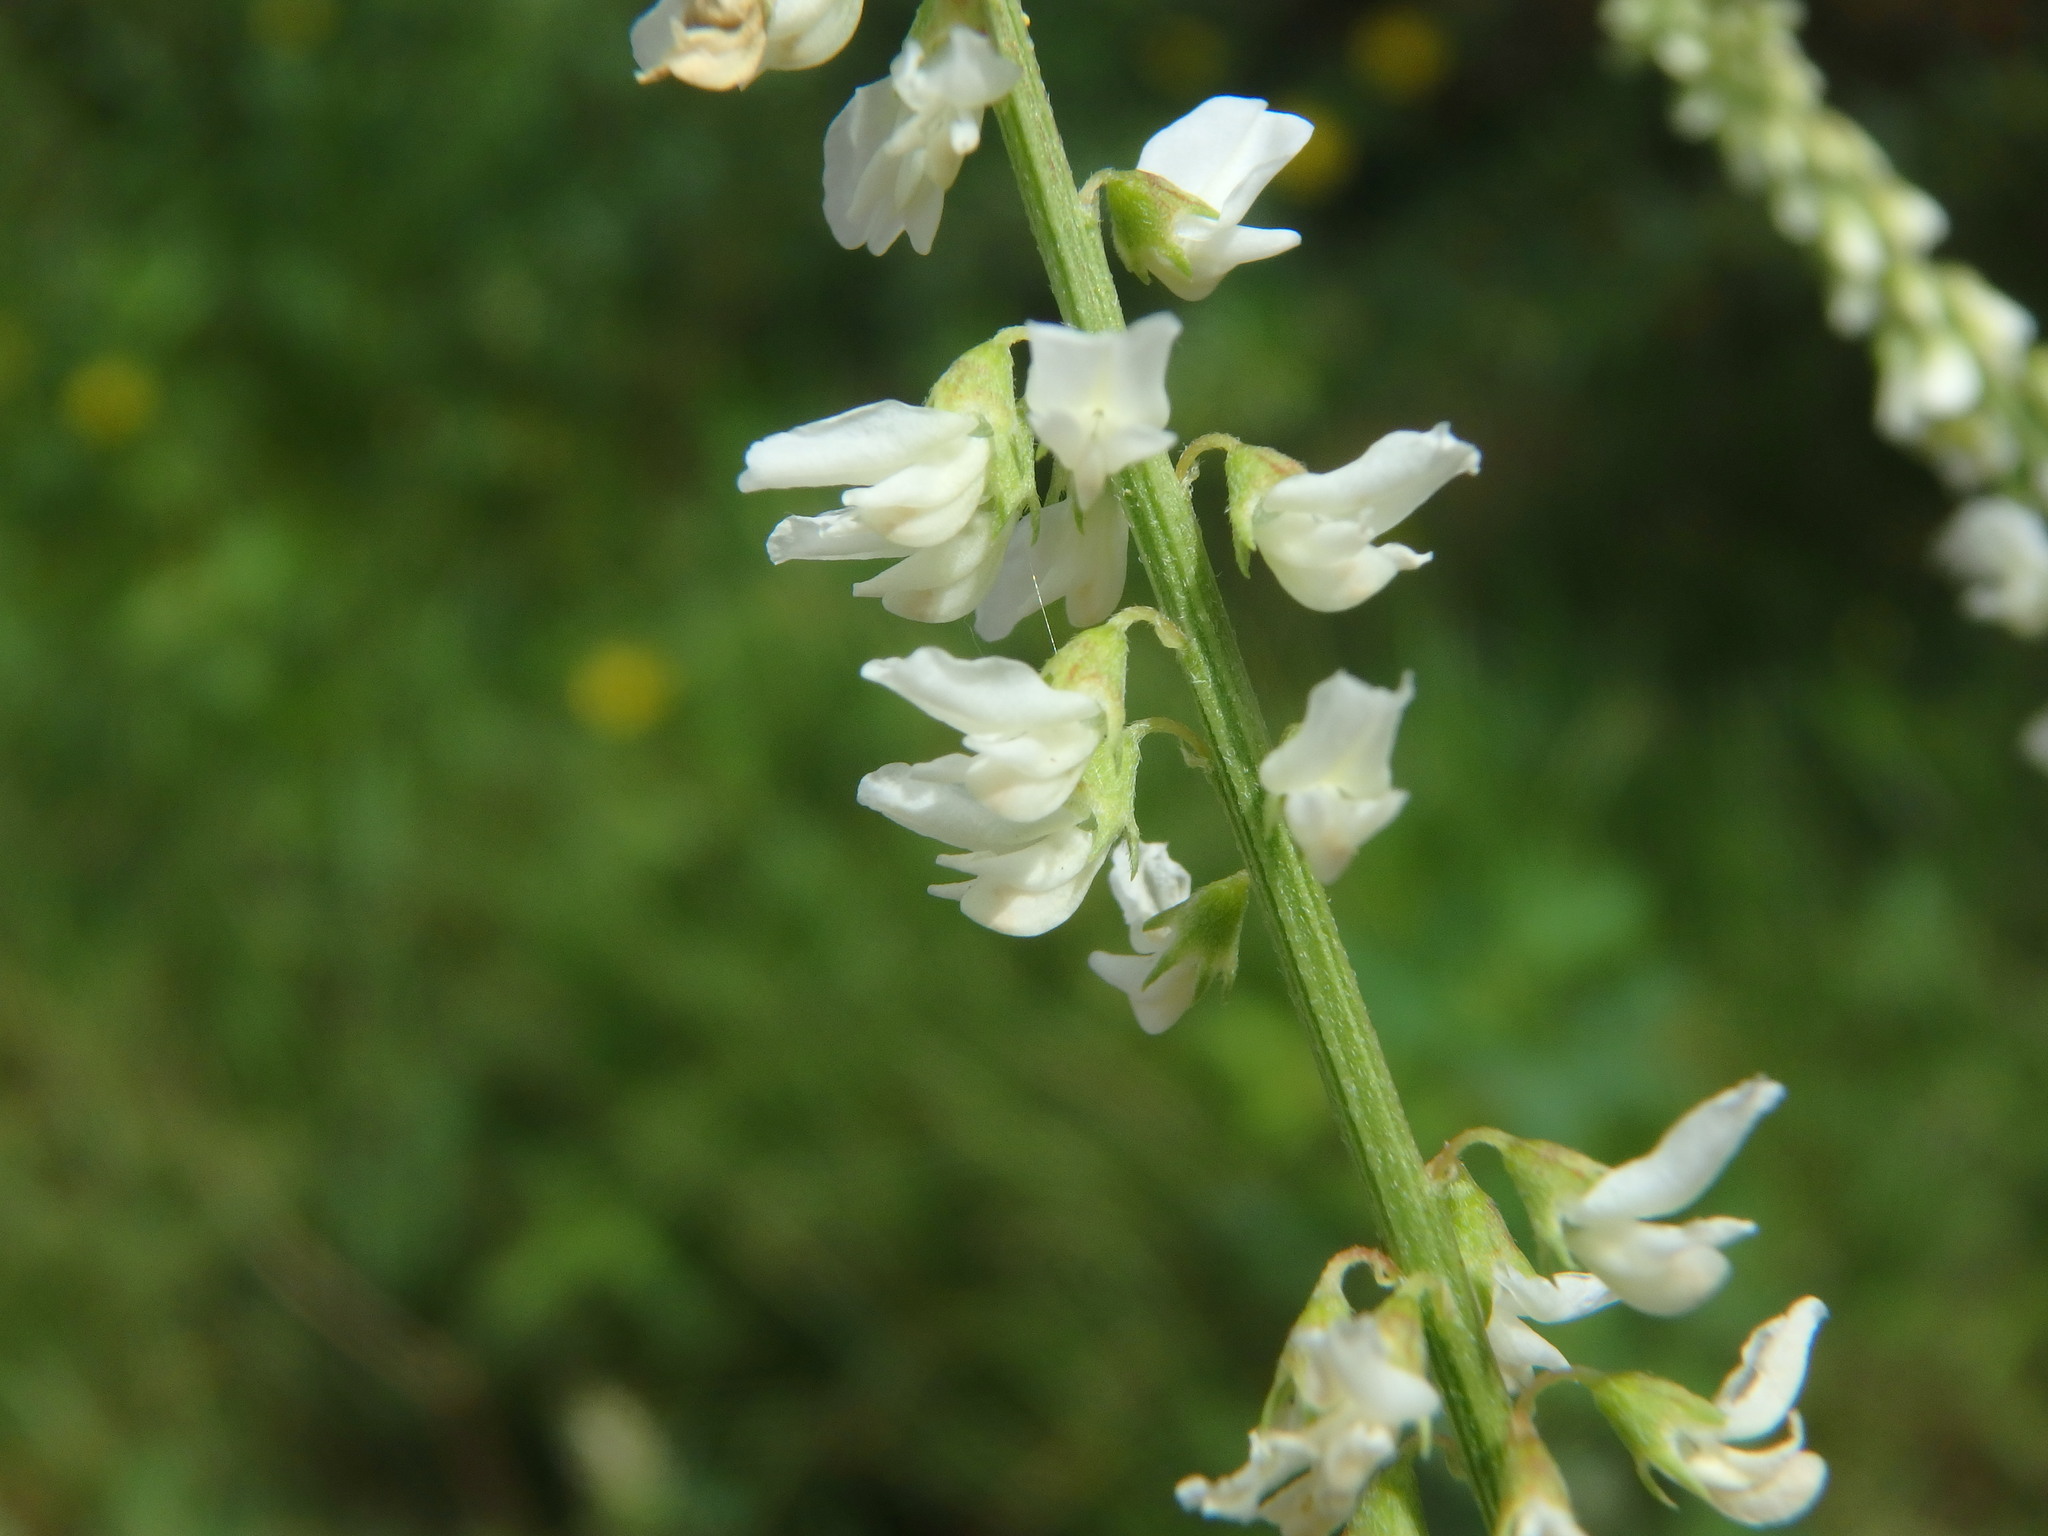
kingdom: Plantae
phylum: Tracheophyta
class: Magnoliopsida
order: Fabales
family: Fabaceae
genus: Melilotus
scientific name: Melilotus albus
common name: White melilot
